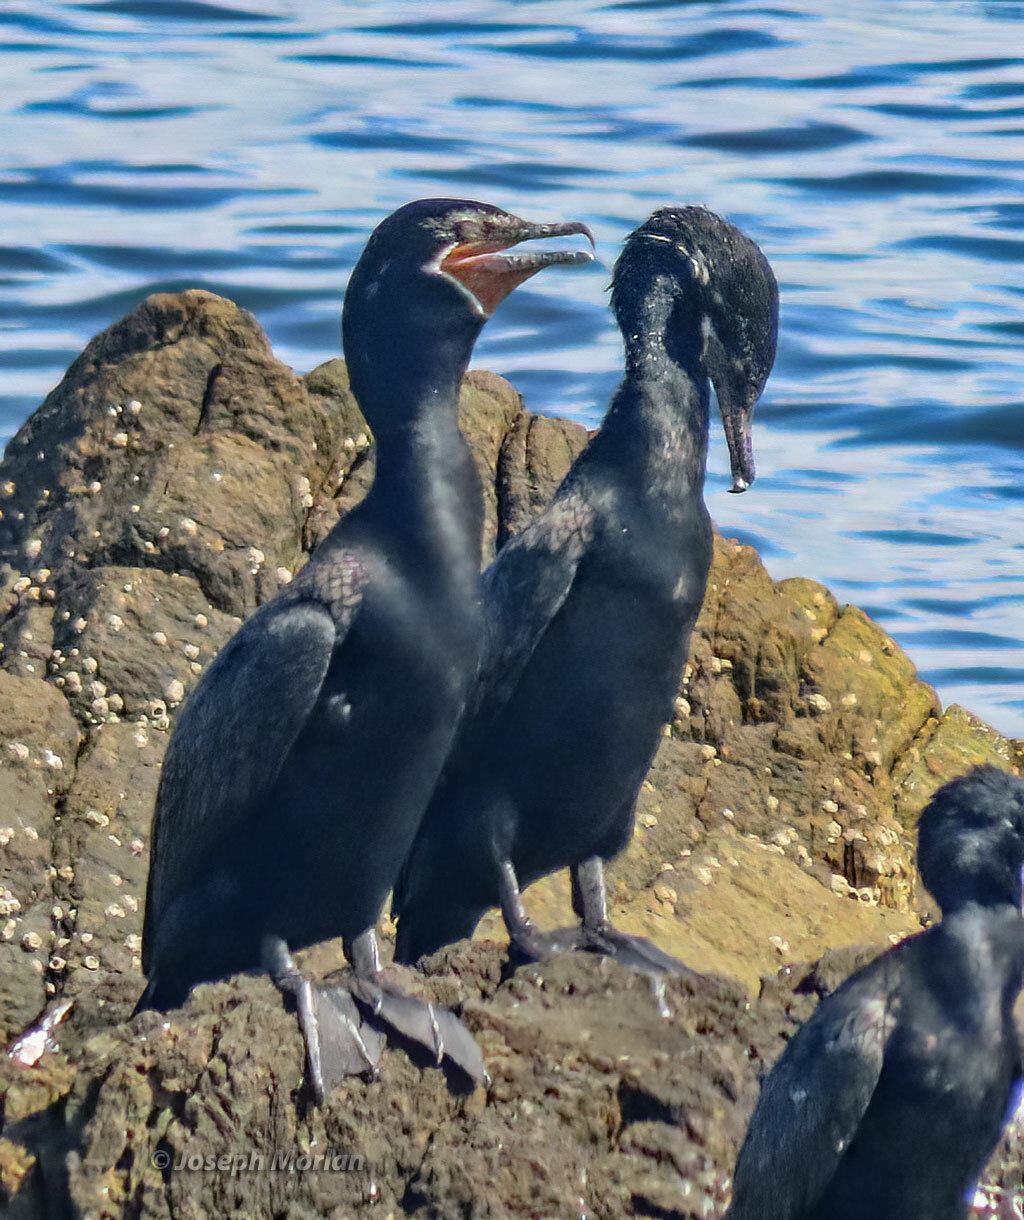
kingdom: Animalia
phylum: Chordata
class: Aves
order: Suliformes
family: Phalacrocoracidae
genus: Phalacrocorax
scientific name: Phalacrocorax brasilianus
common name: Neotropic cormorant
